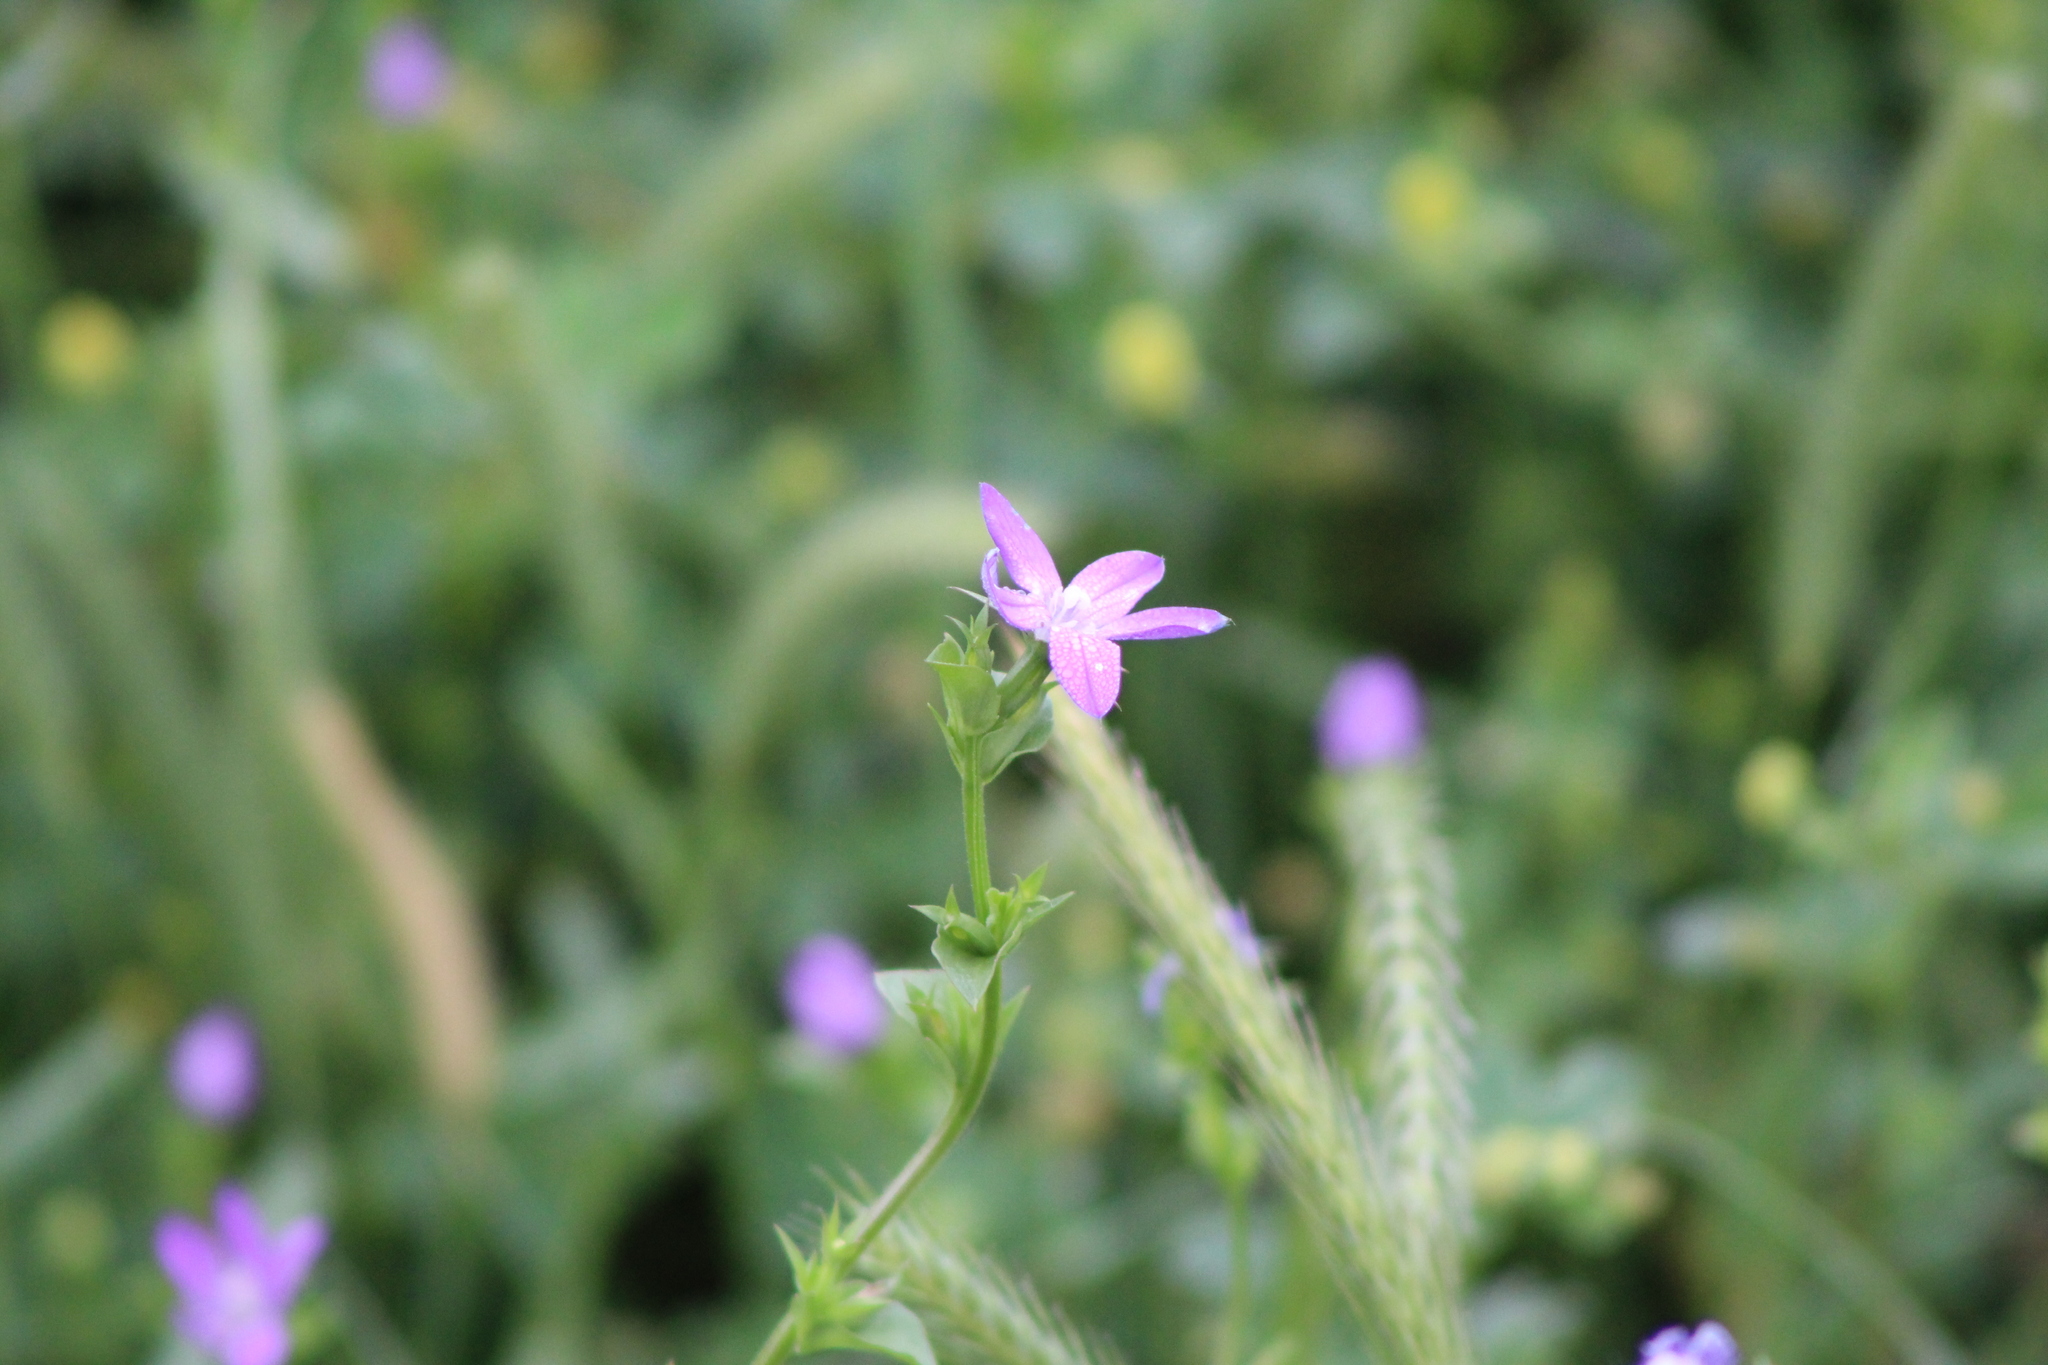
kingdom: Plantae
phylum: Tracheophyta
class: Magnoliopsida
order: Geraniales
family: Geraniaceae
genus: Erodium
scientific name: Erodium cicutarium
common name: Common stork's-bill
